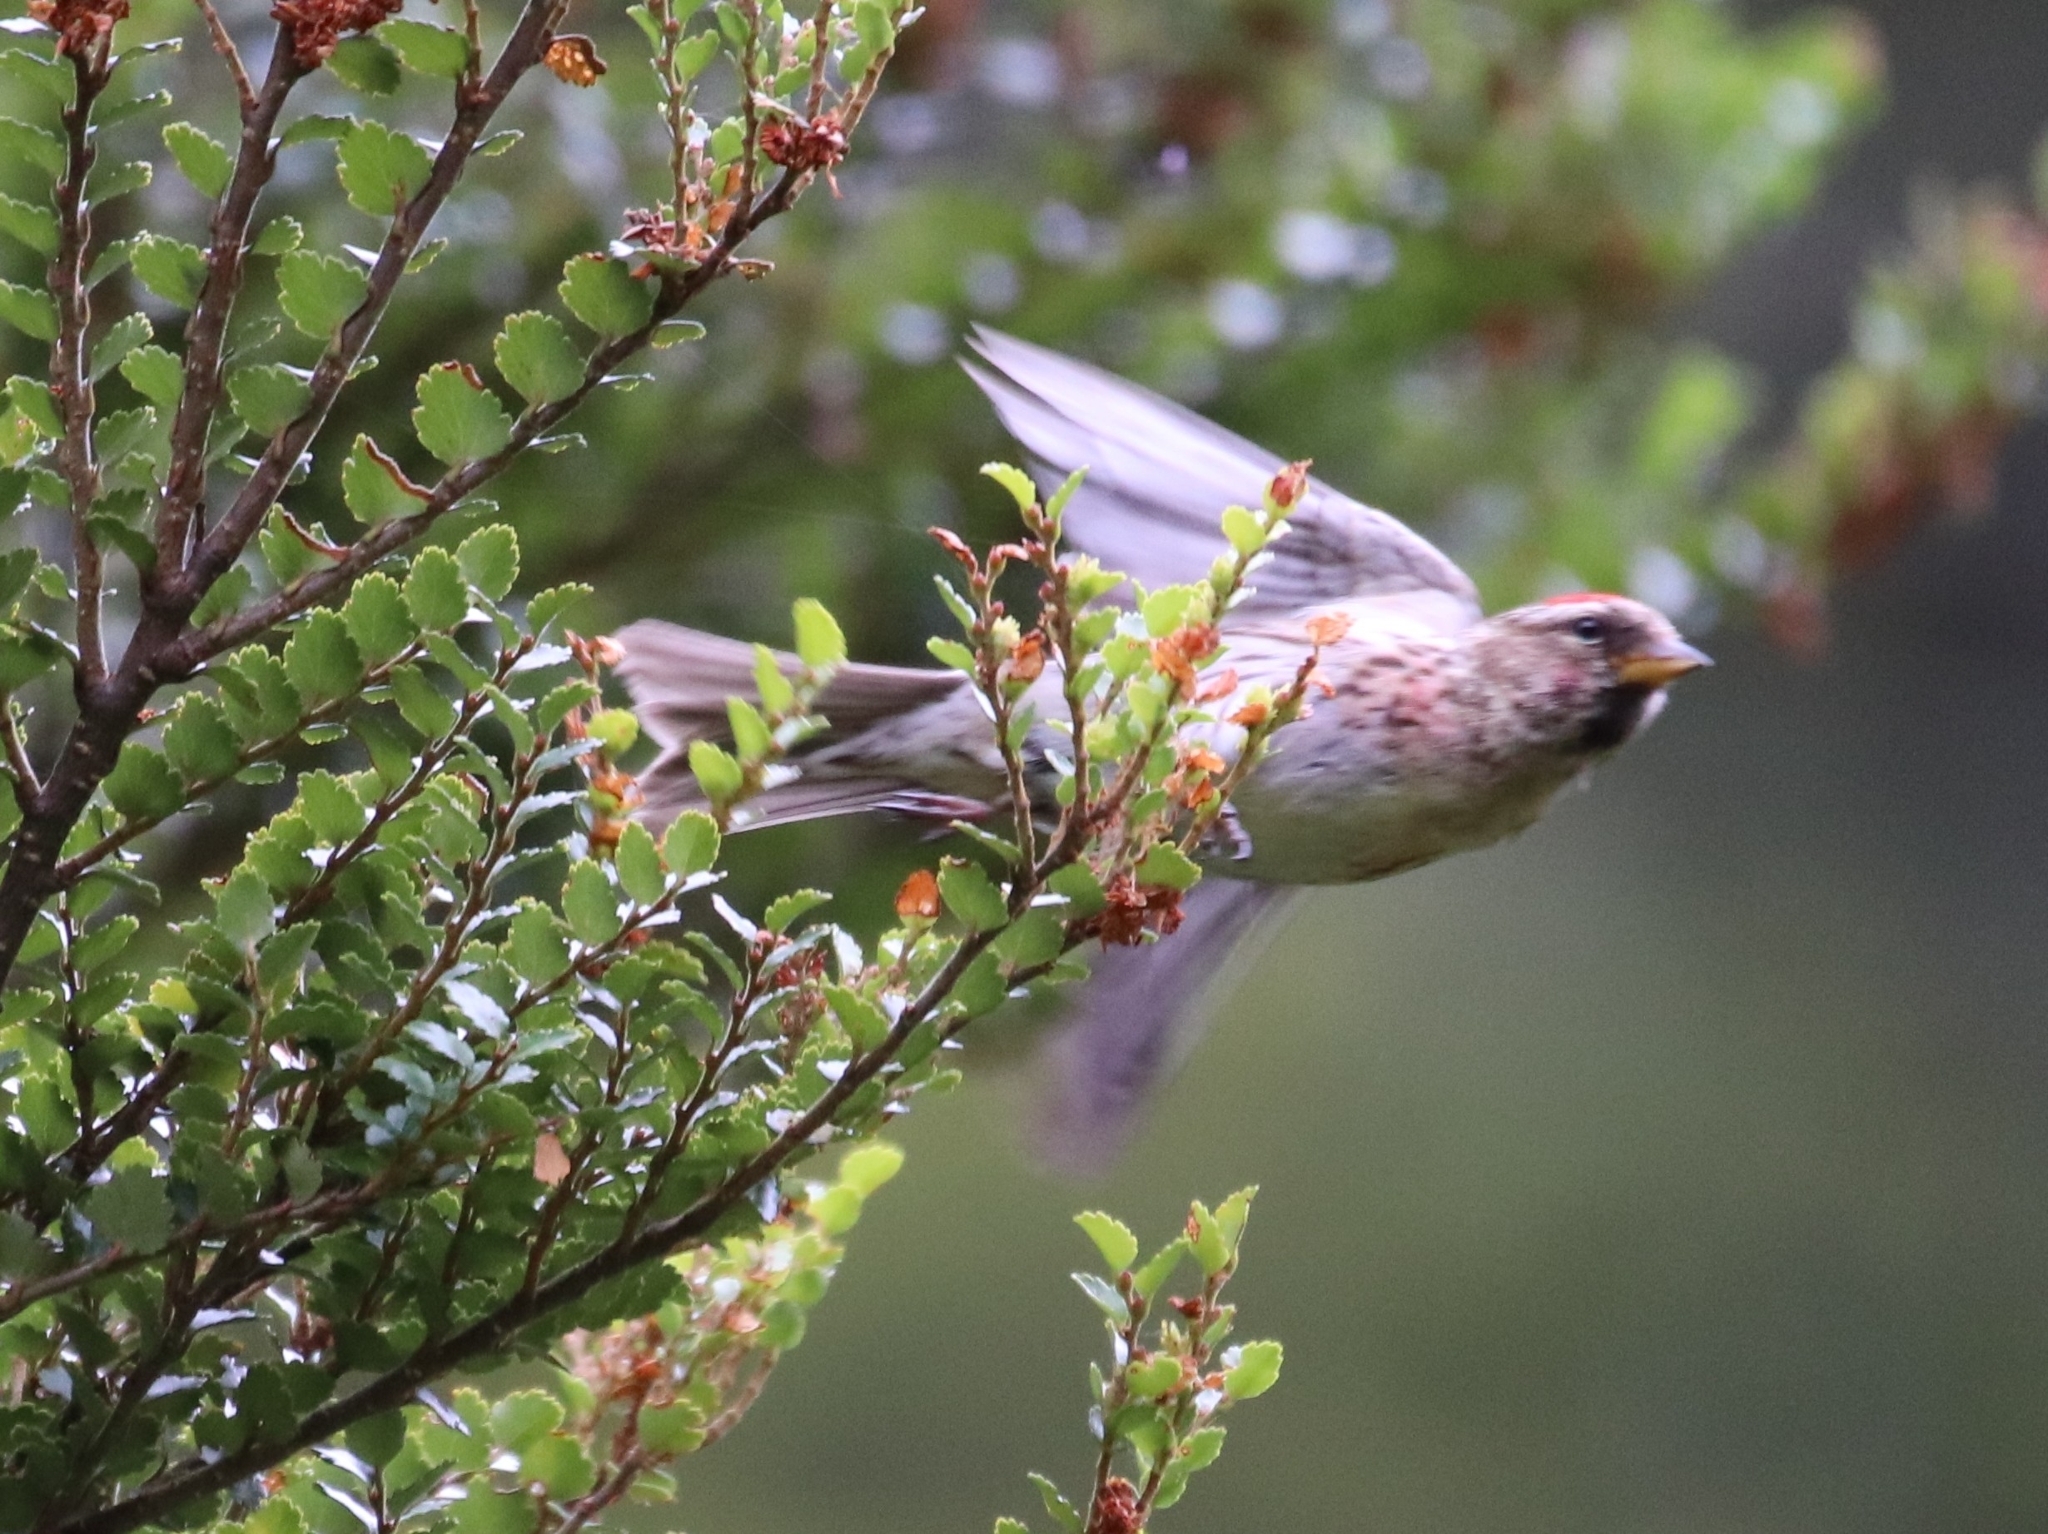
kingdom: Animalia
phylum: Chordata
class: Aves
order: Passeriformes
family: Fringillidae
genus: Acanthis
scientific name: Acanthis flammea
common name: Common redpoll
